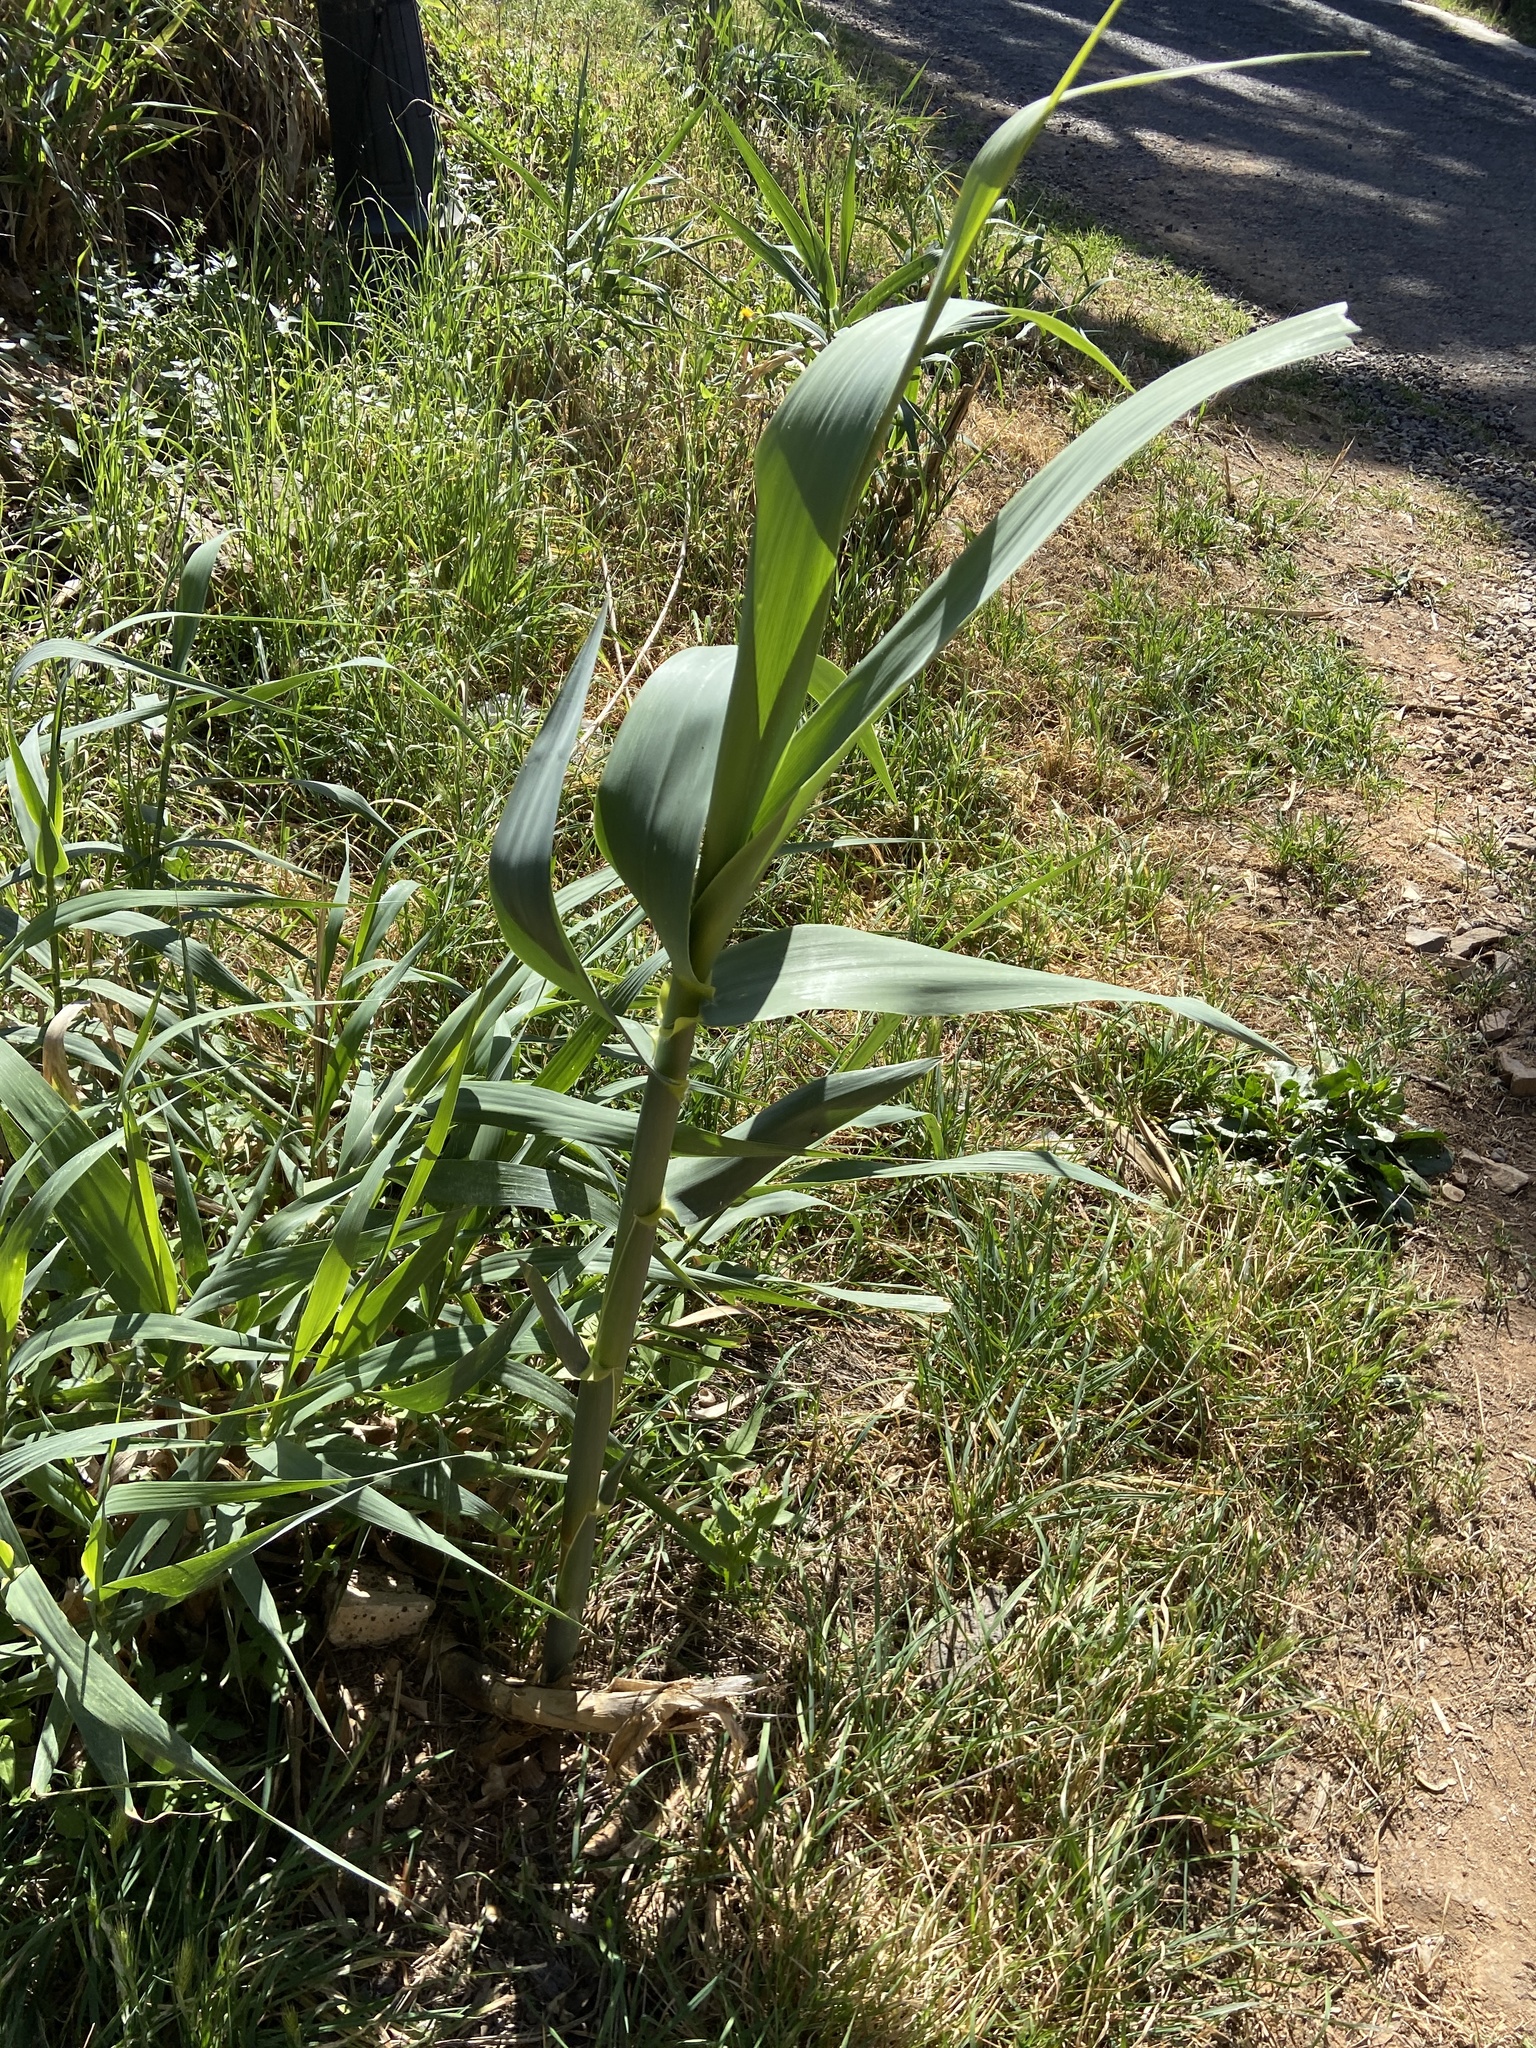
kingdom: Plantae
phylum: Tracheophyta
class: Liliopsida
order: Poales
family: Poaceae
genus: Arundo
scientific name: Arundo donax
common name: Giant reed
